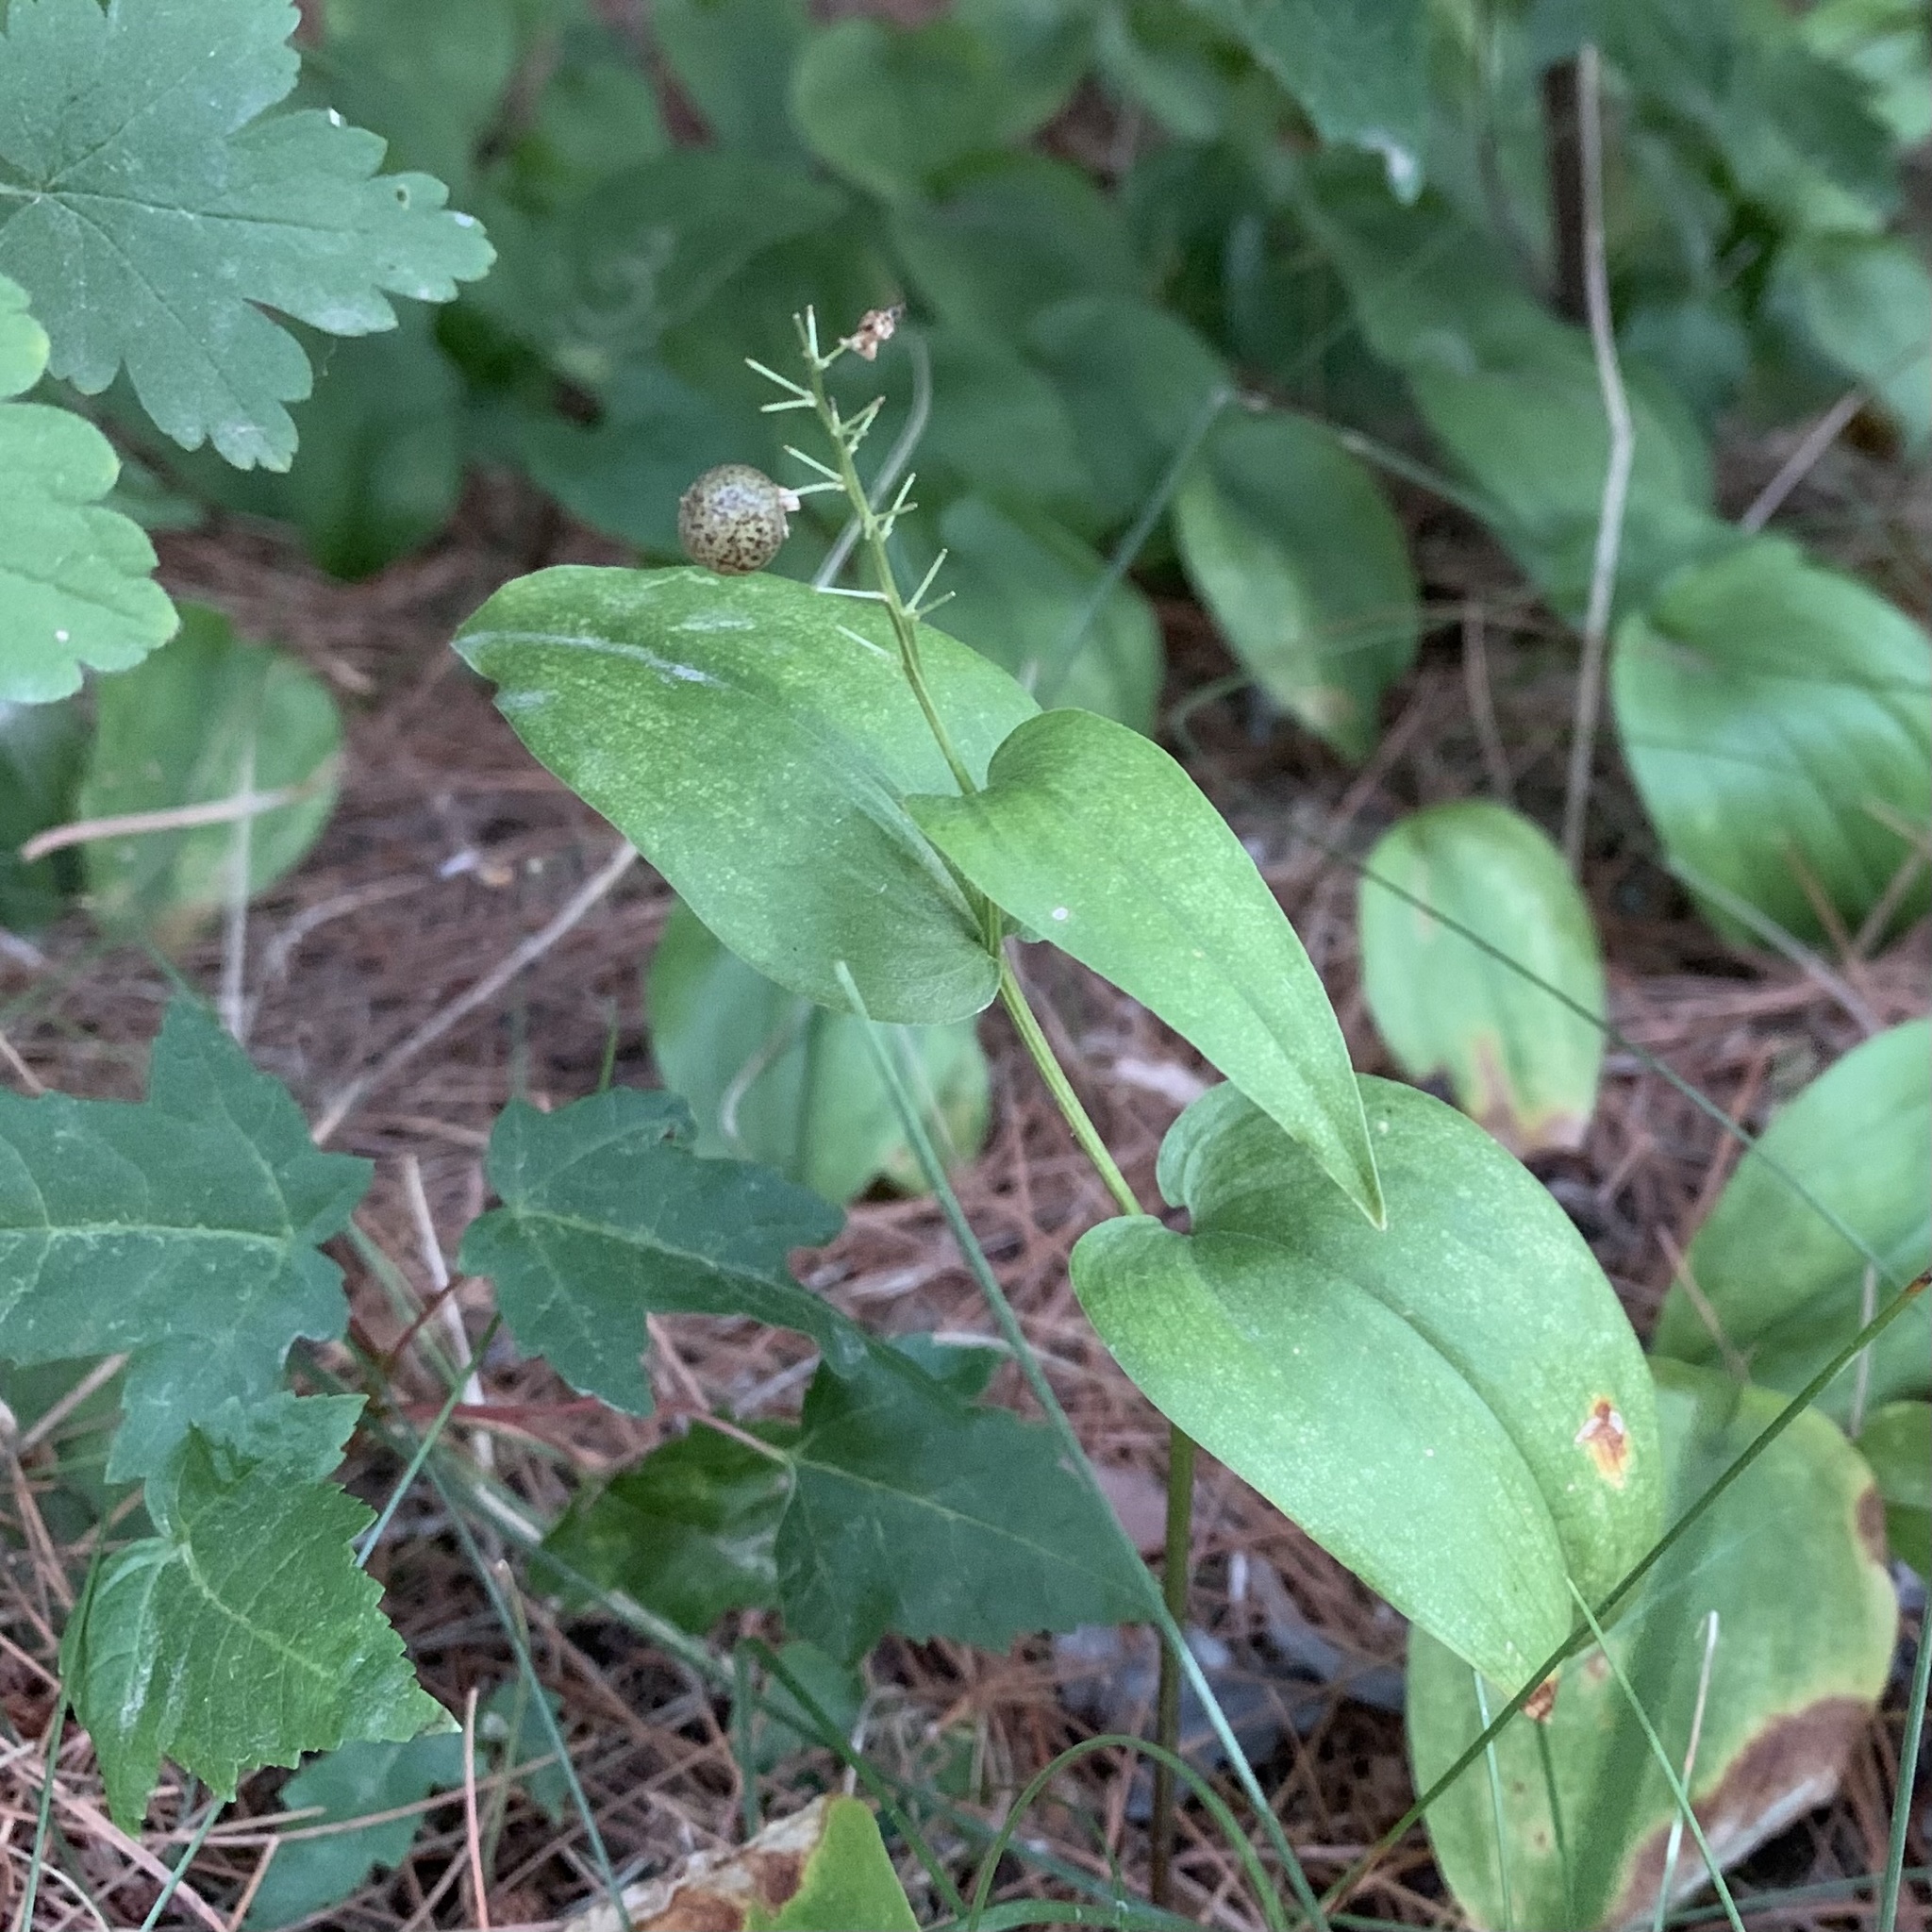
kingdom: Plantae
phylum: Tracheophyta
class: Liliopsida
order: Asparagales
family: Asparagaceae
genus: Maianthemum
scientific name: Maianthemum canadense
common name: False lily-of-the-valley
